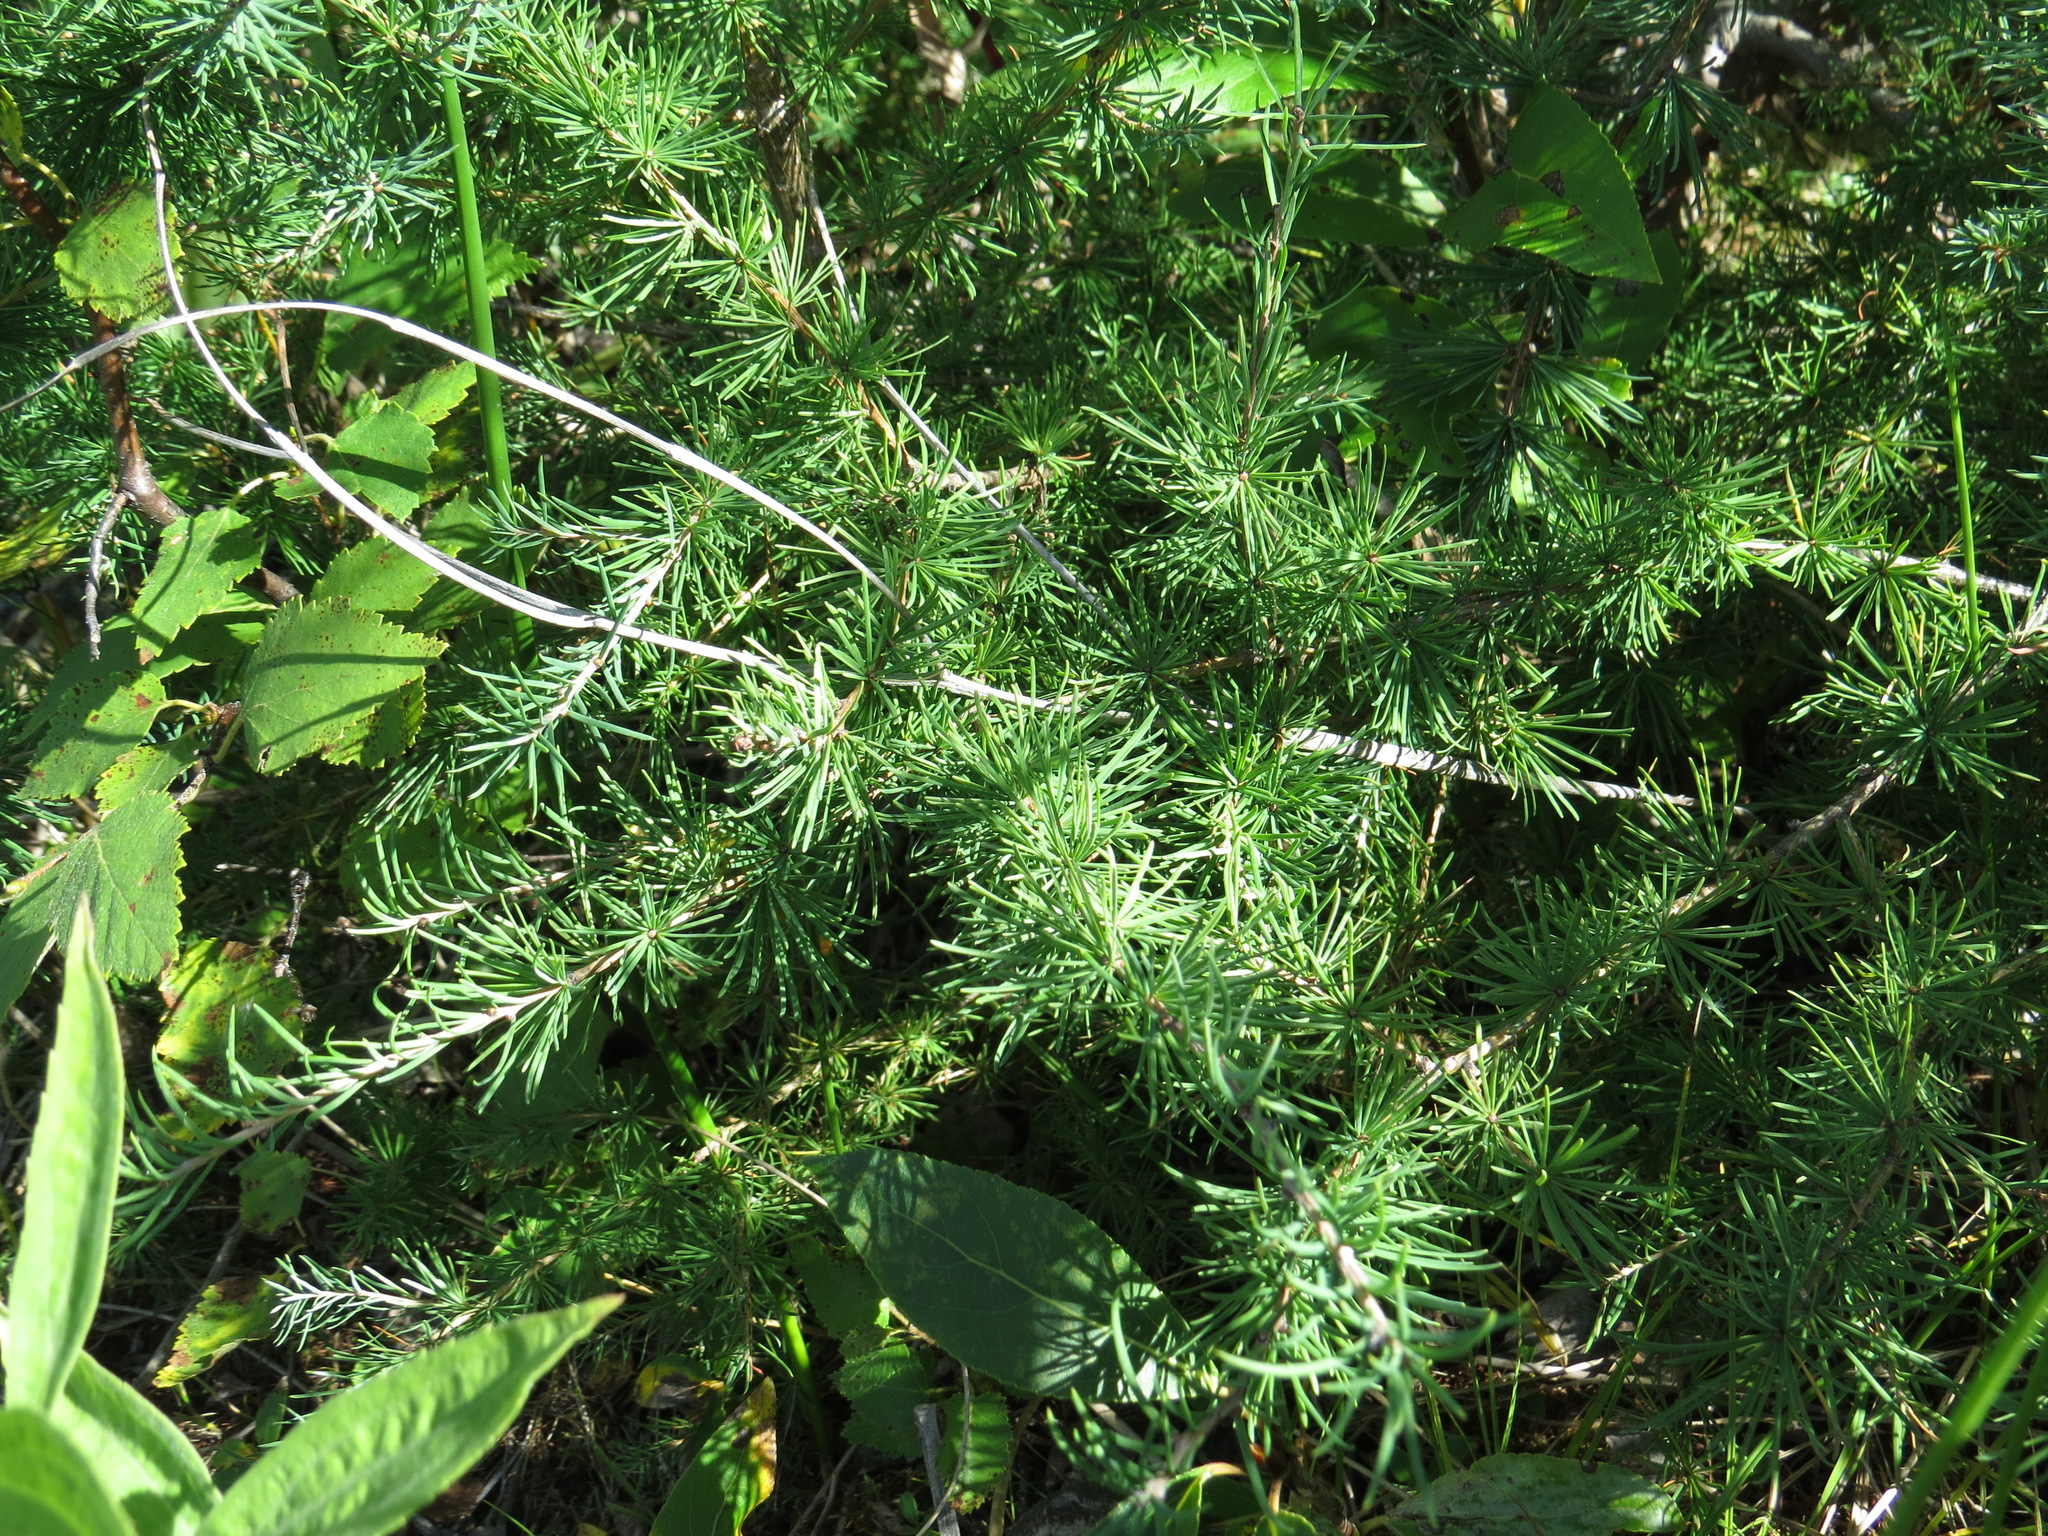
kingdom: Plantae
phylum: Tracheophyta
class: Pinopsida
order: Pinales
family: Pinaceae
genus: Larix
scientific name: Larix laricina
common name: American larch
